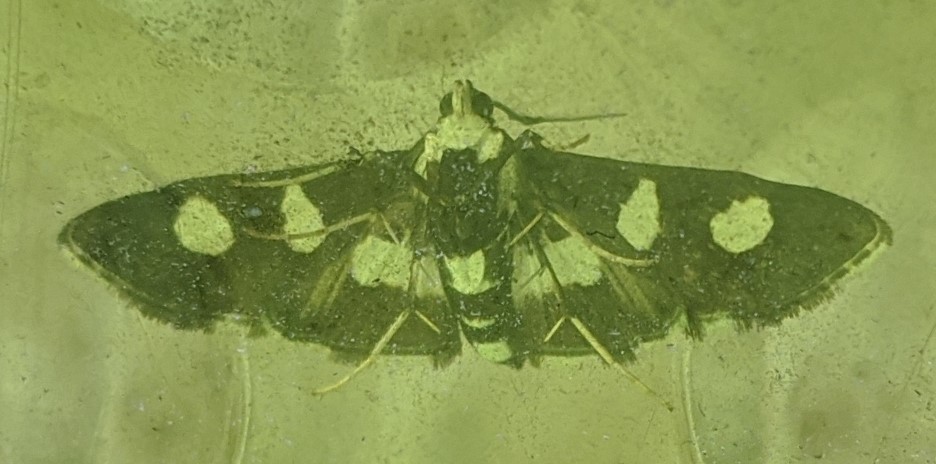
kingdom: Animalia
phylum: Arthropoda
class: Insecta
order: Lepidoptera
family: Crambidae
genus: Desmia
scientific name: Desmia funeralis
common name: Grape leaf folder moth
